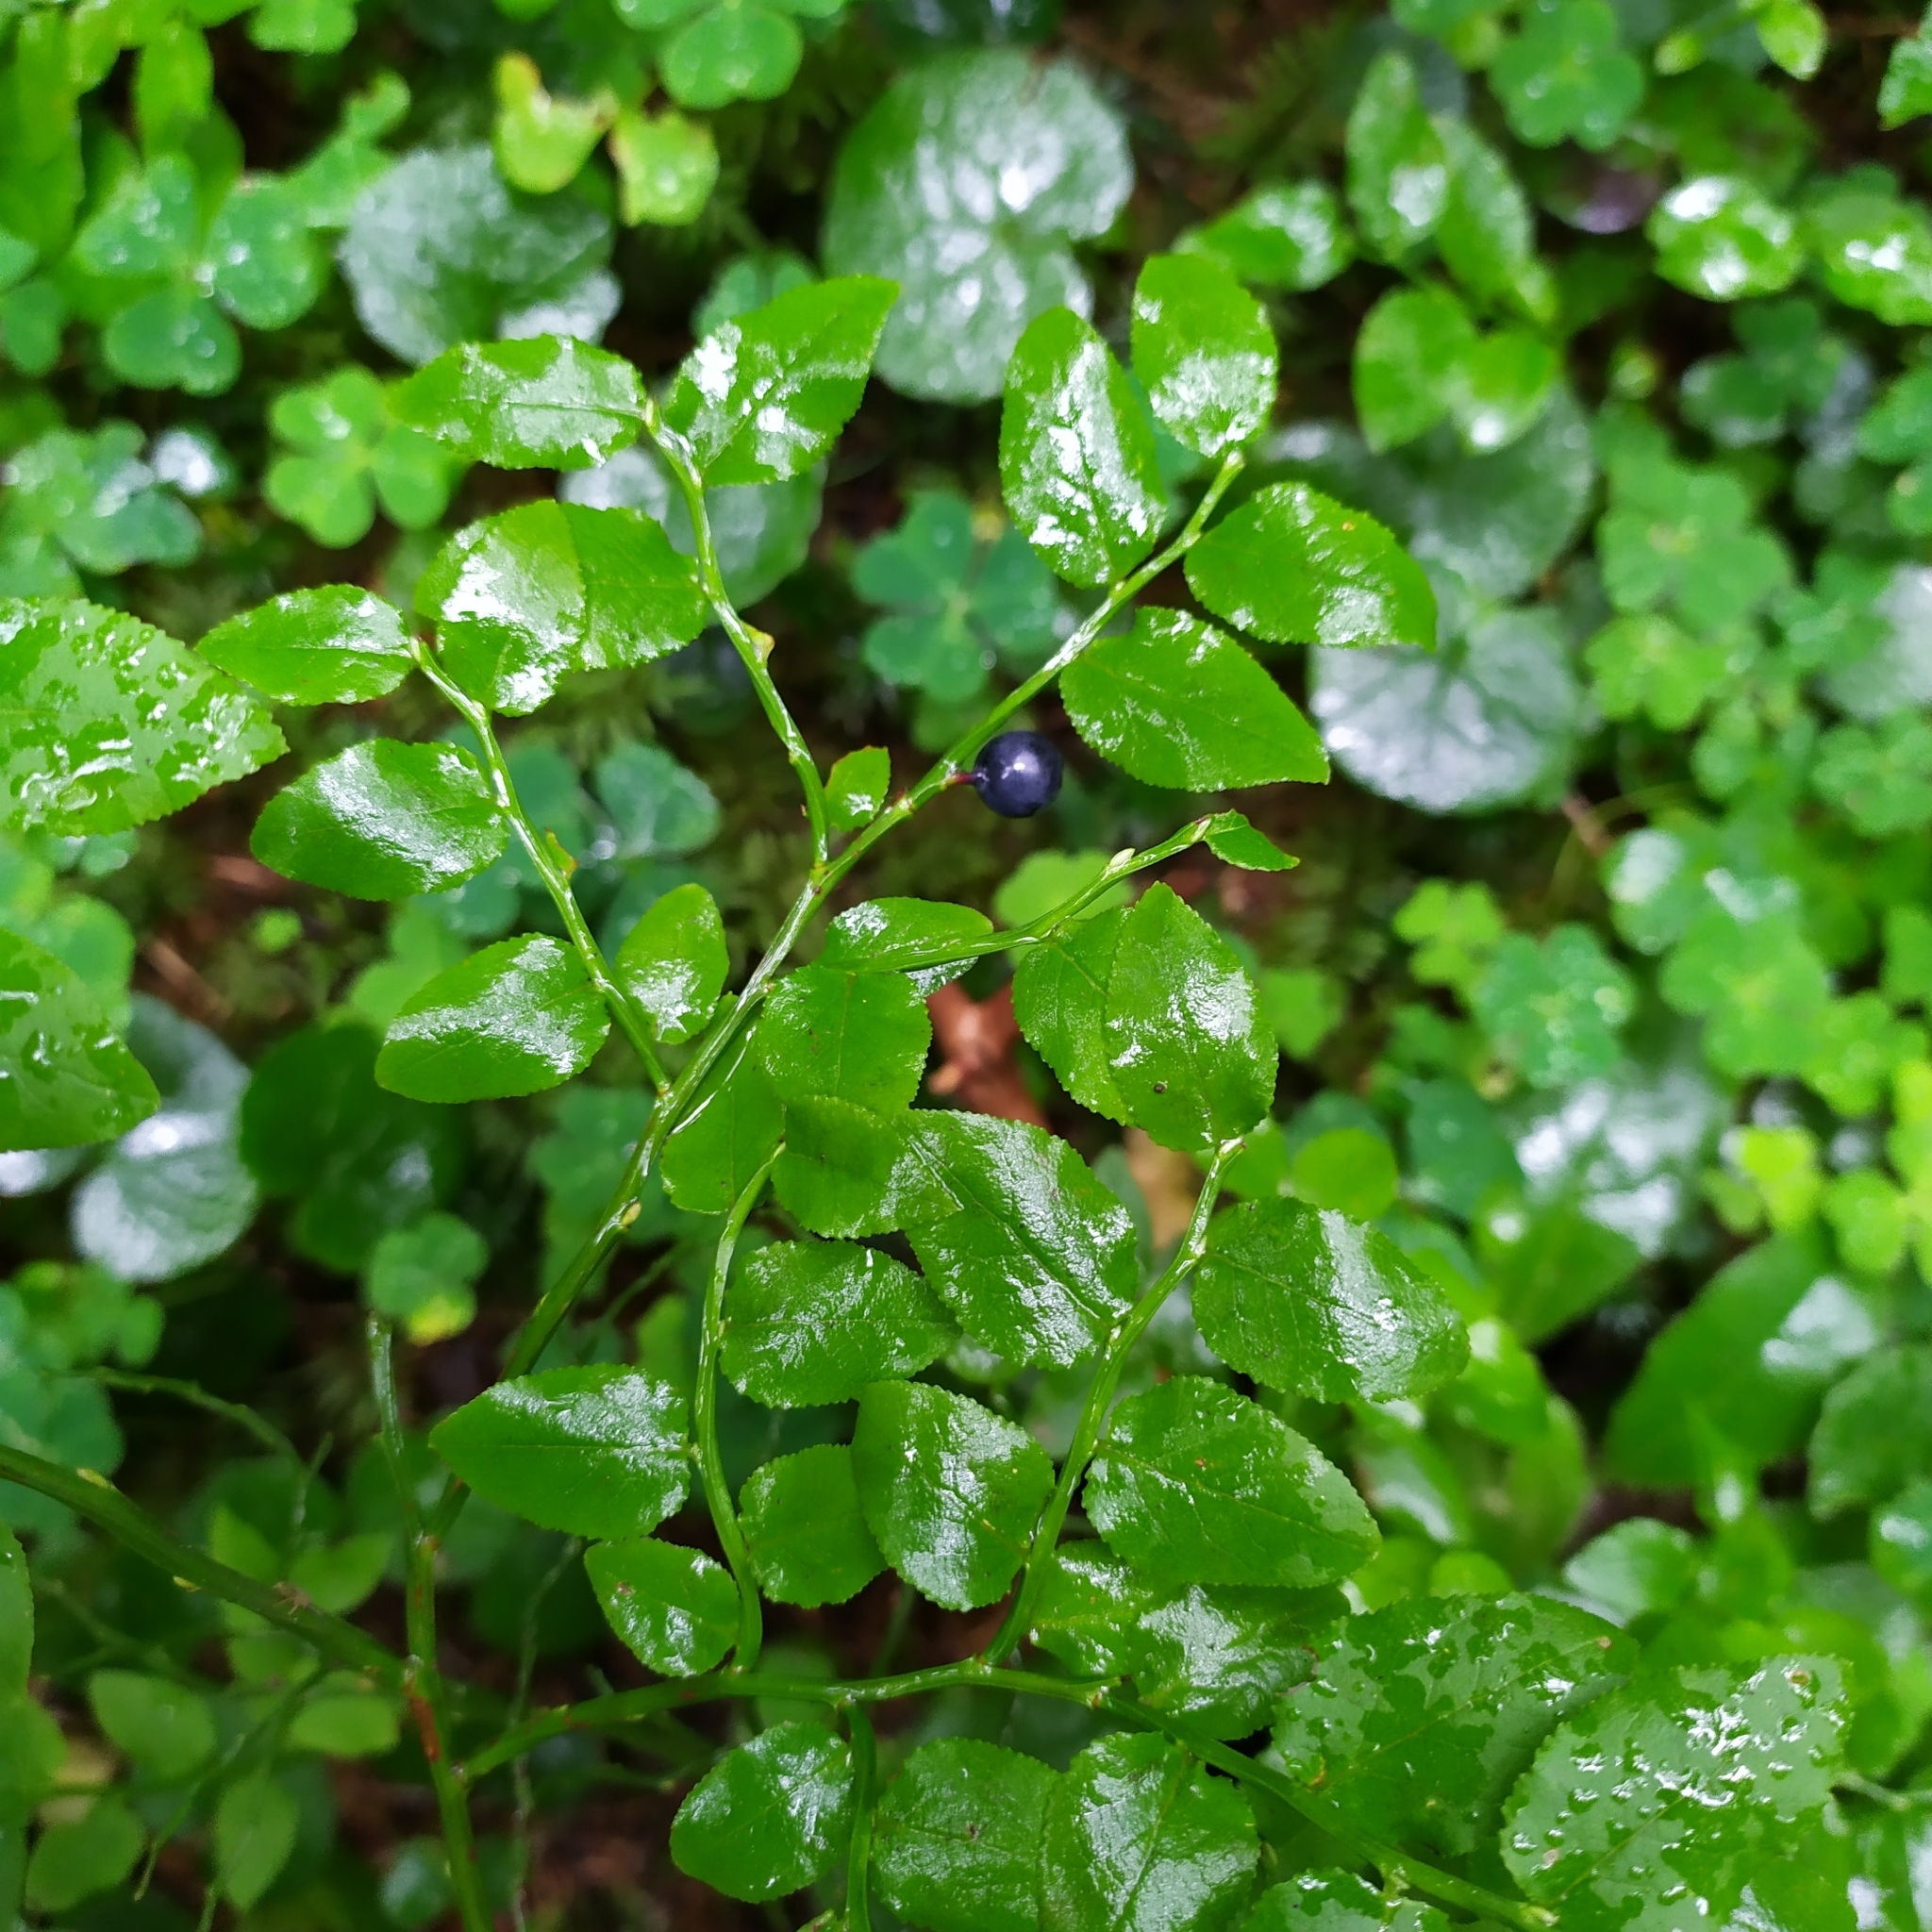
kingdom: Plantae
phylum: Tracheophyta
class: Magnoliopsida
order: Ericales
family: Ericaceae
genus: Vaccinium
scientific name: Vaccinium myrtillus
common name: Bilberry
